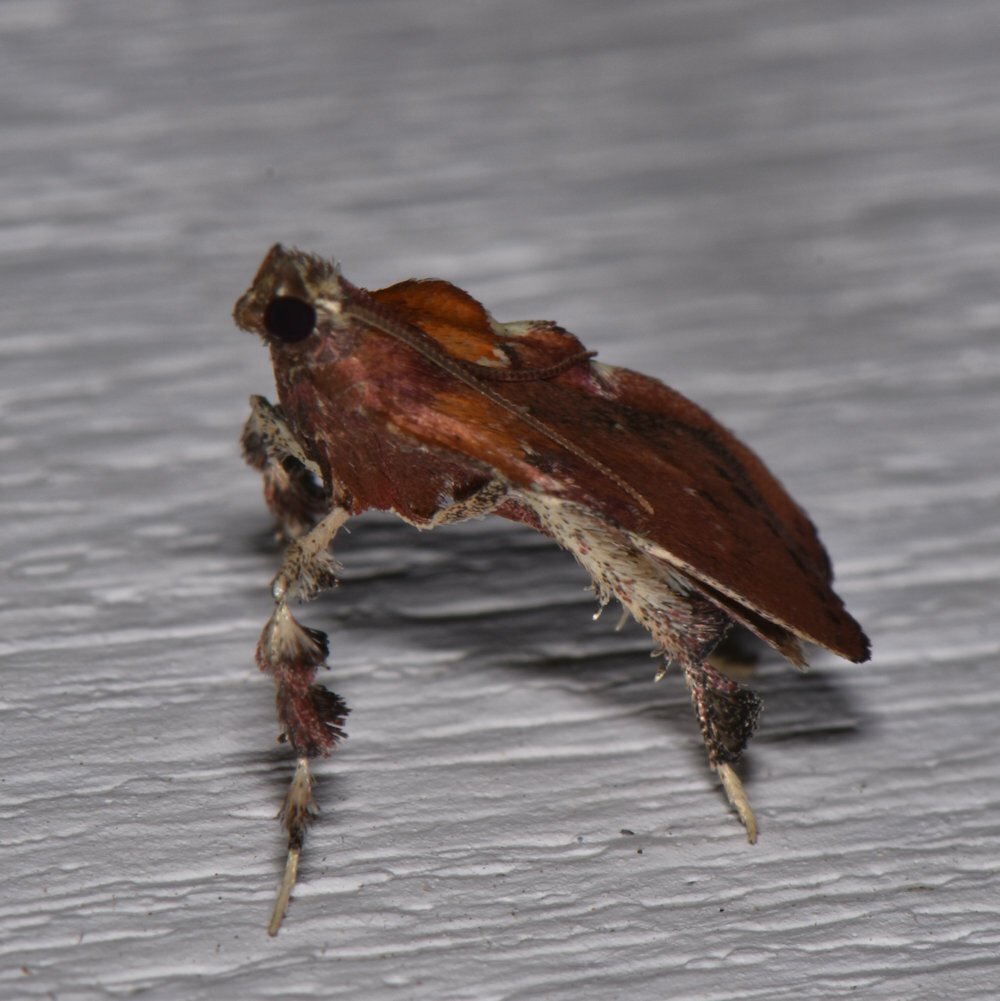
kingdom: Animalia
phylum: Arthropoda
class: Insecta
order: Lepidoptera
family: Pyralidae
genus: Galasa
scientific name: Galasa nigrinodis
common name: Boxwood leaftier moth
